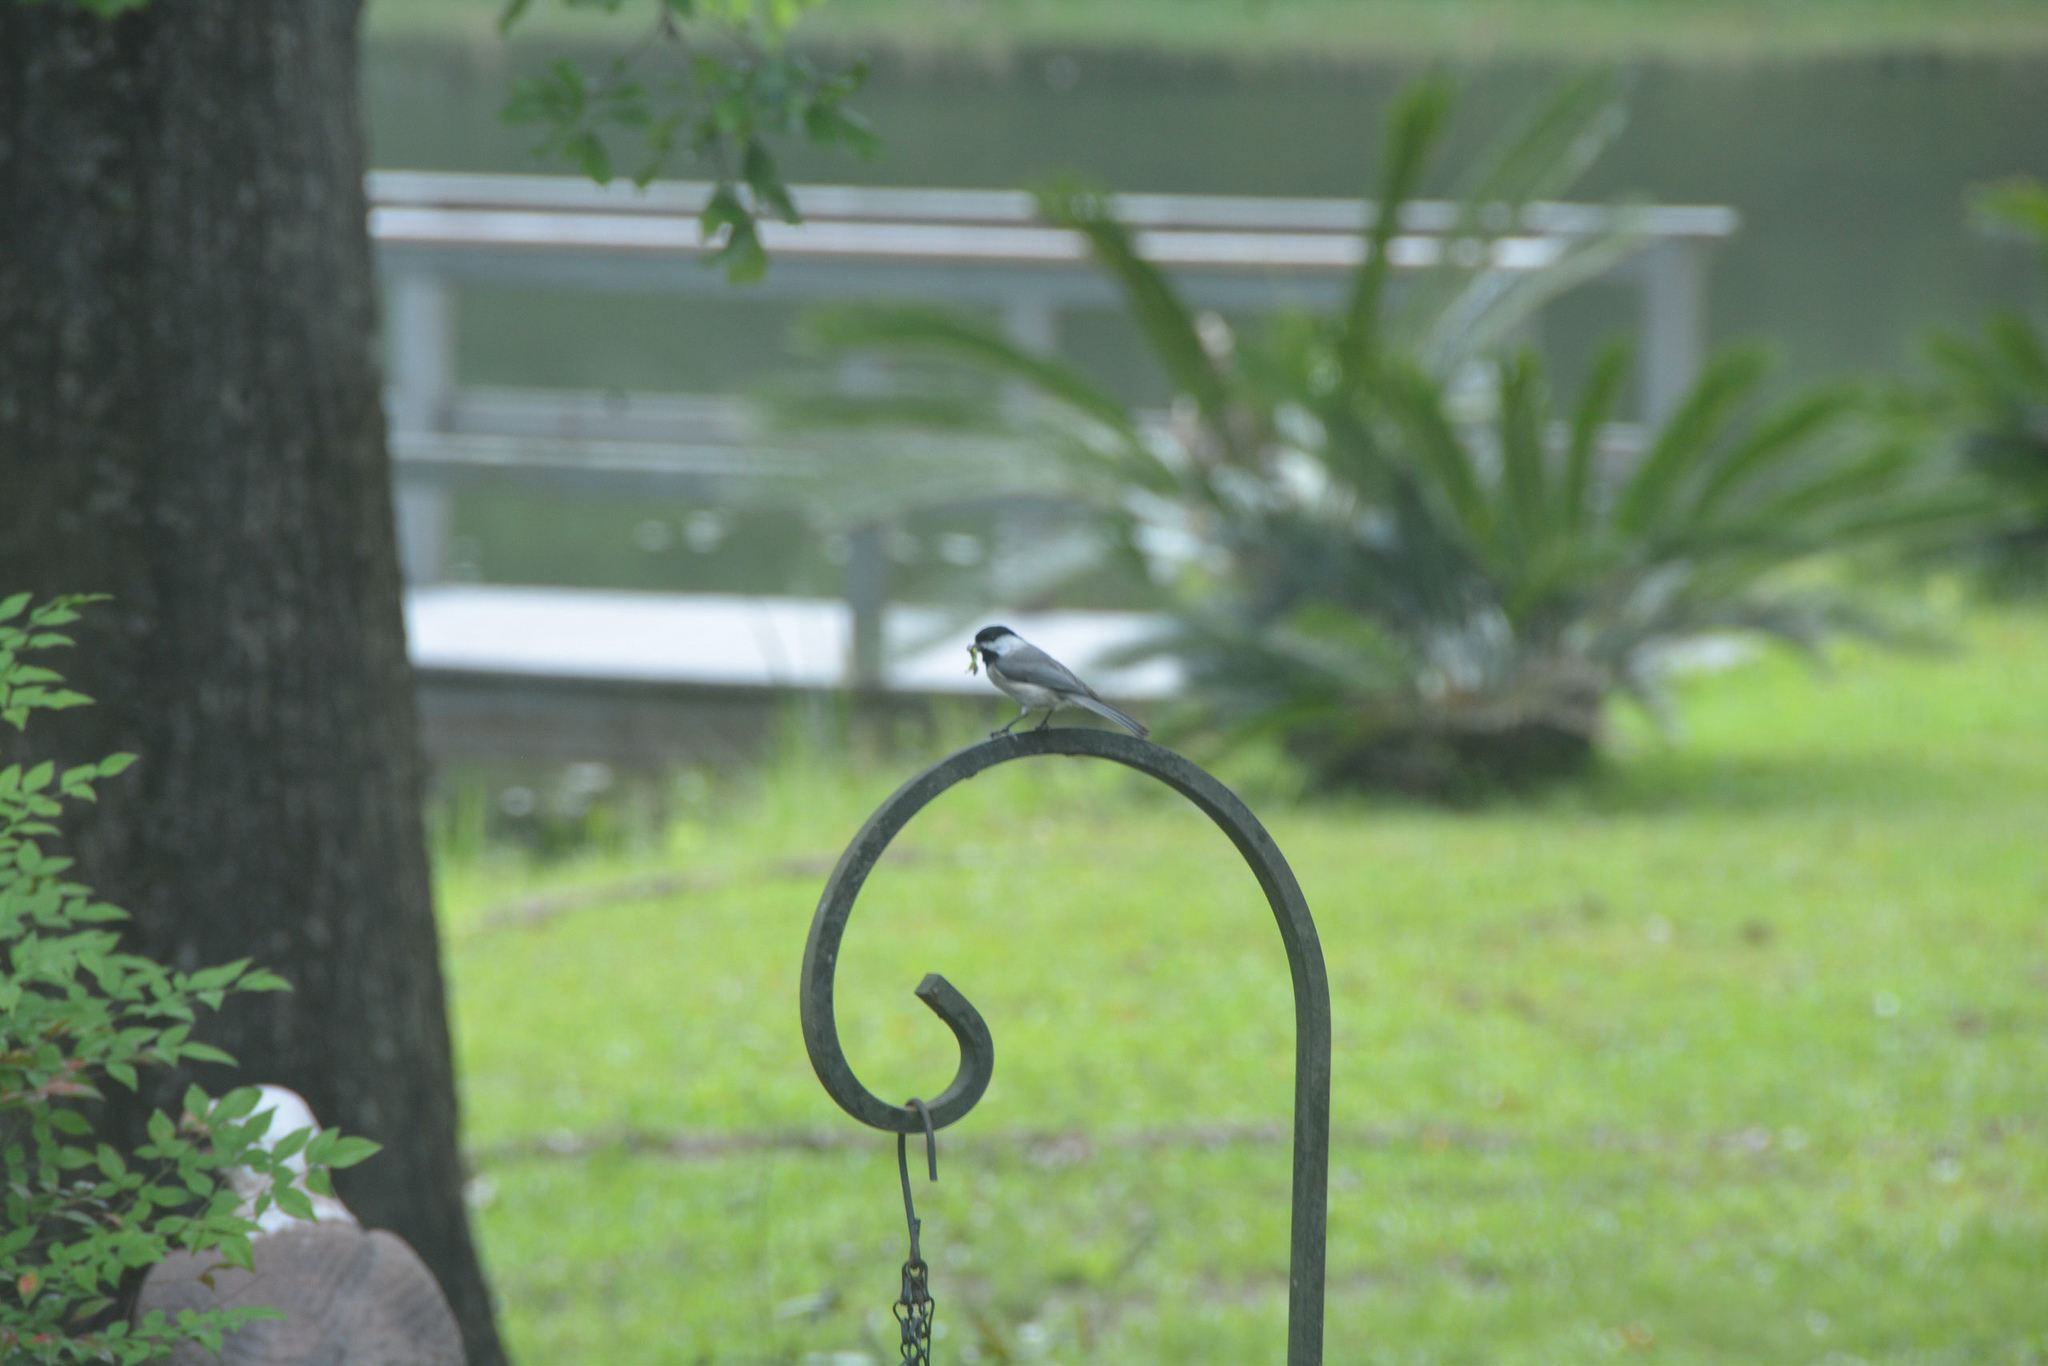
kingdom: Animalia
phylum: Chordata
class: Aves
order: Passeriformes
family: Paridae
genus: Poecile
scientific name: Poecile carolinensis
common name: Carolina chickadee
